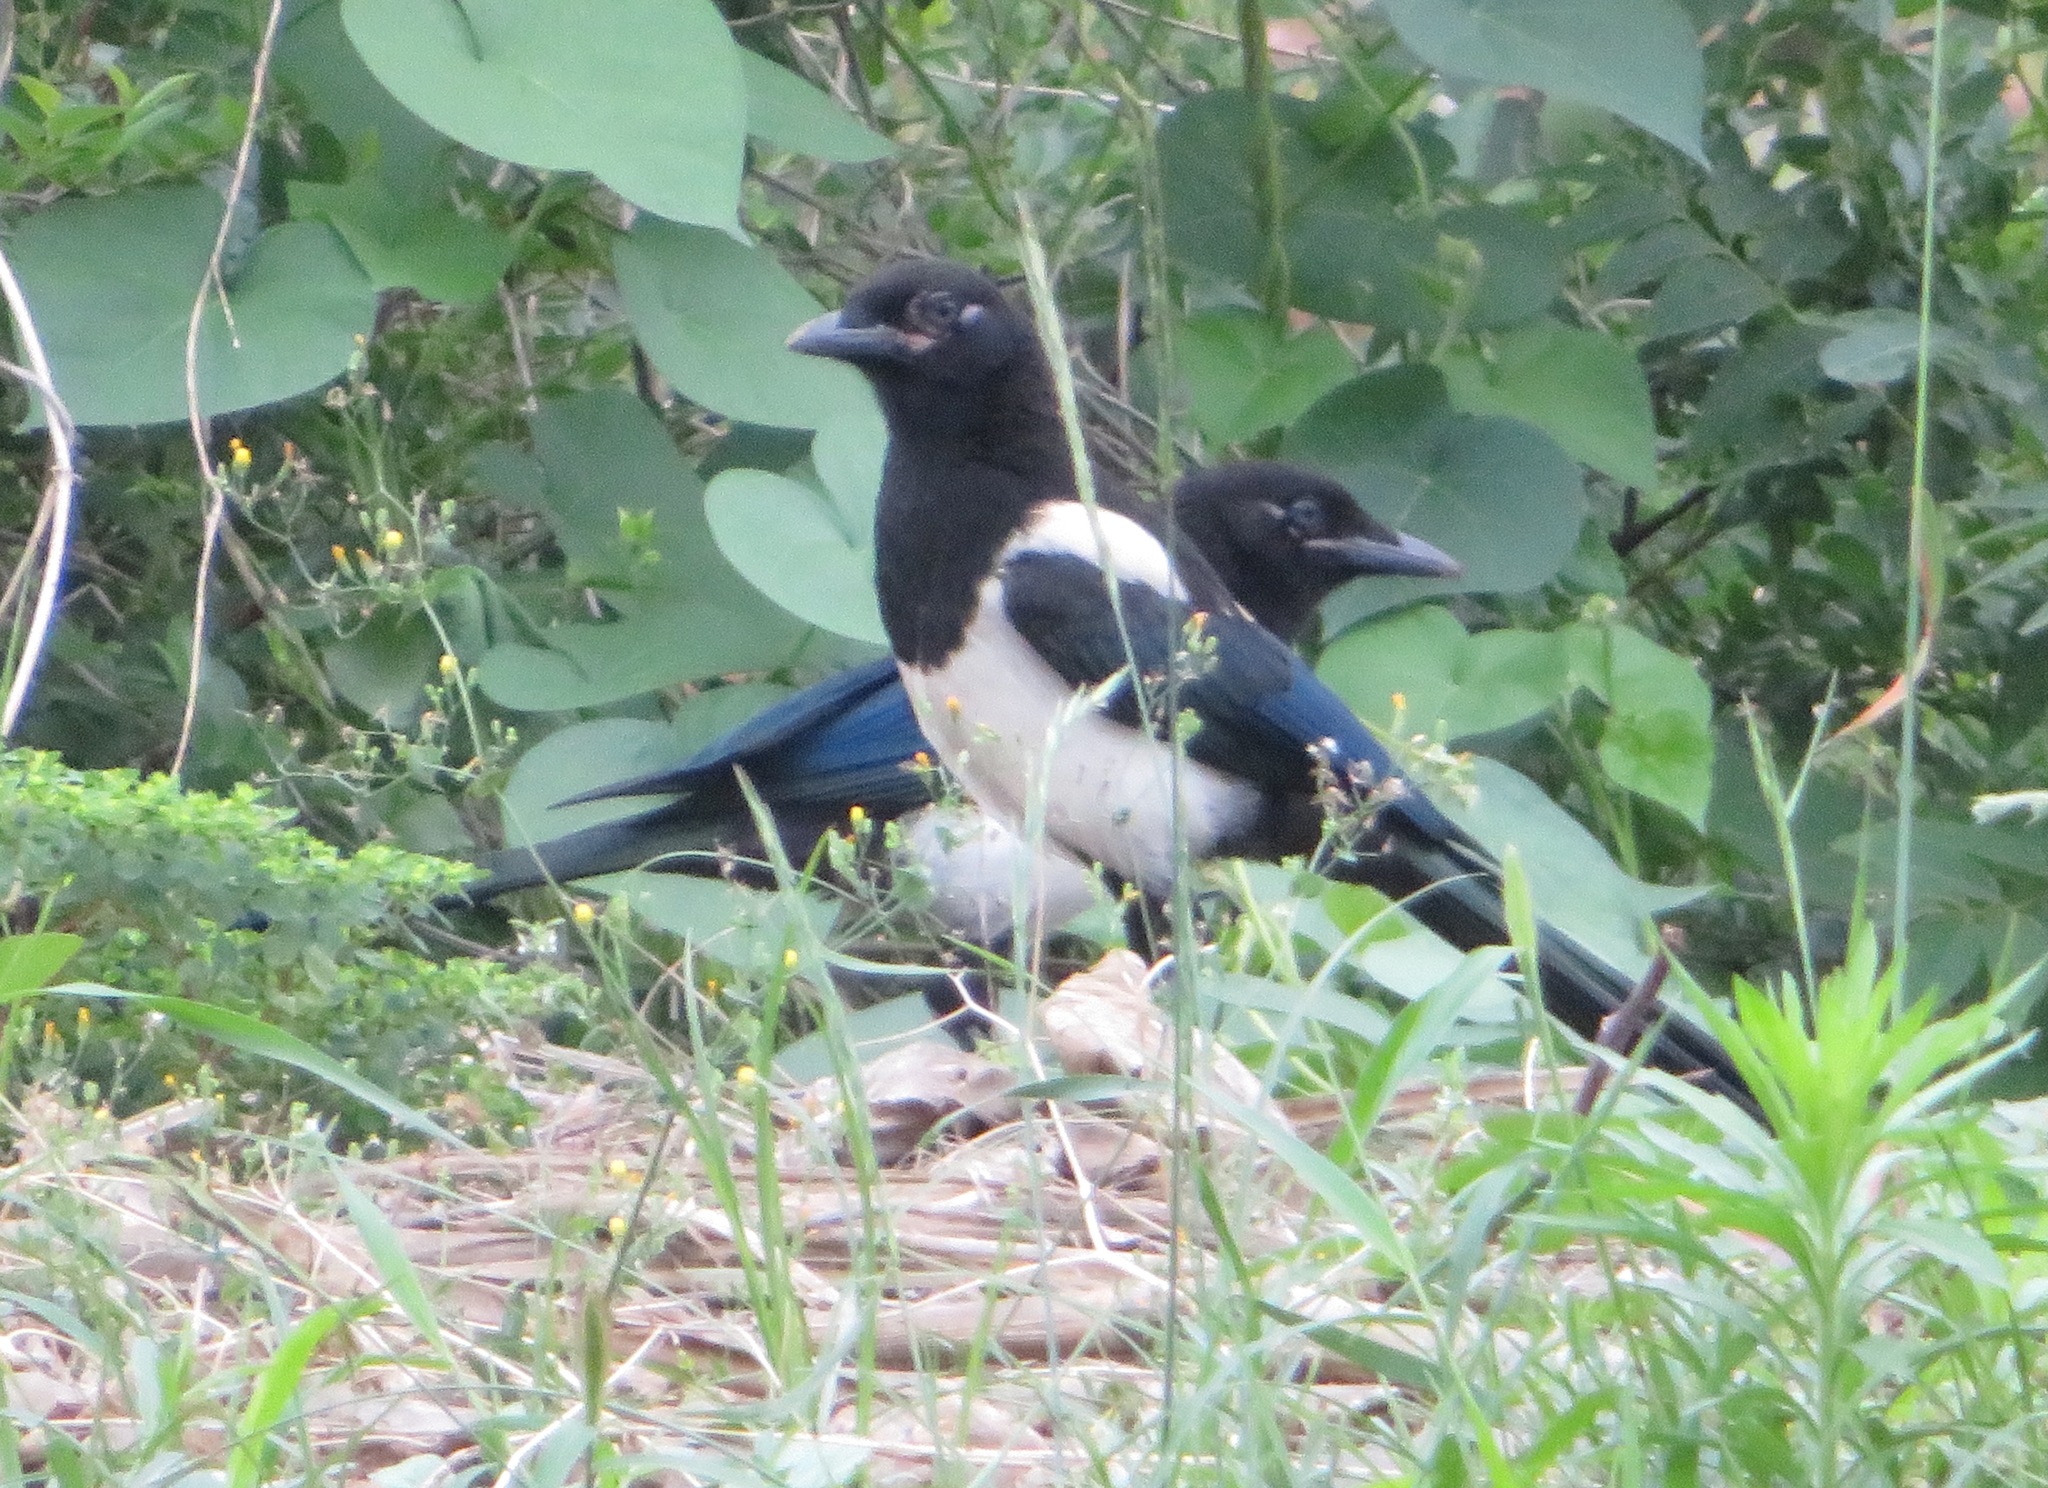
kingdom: Animalia
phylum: Chordata
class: Aves
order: Passeriformes
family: Corvidae
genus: Pica
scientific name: Pica serica
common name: Oriental magpie
